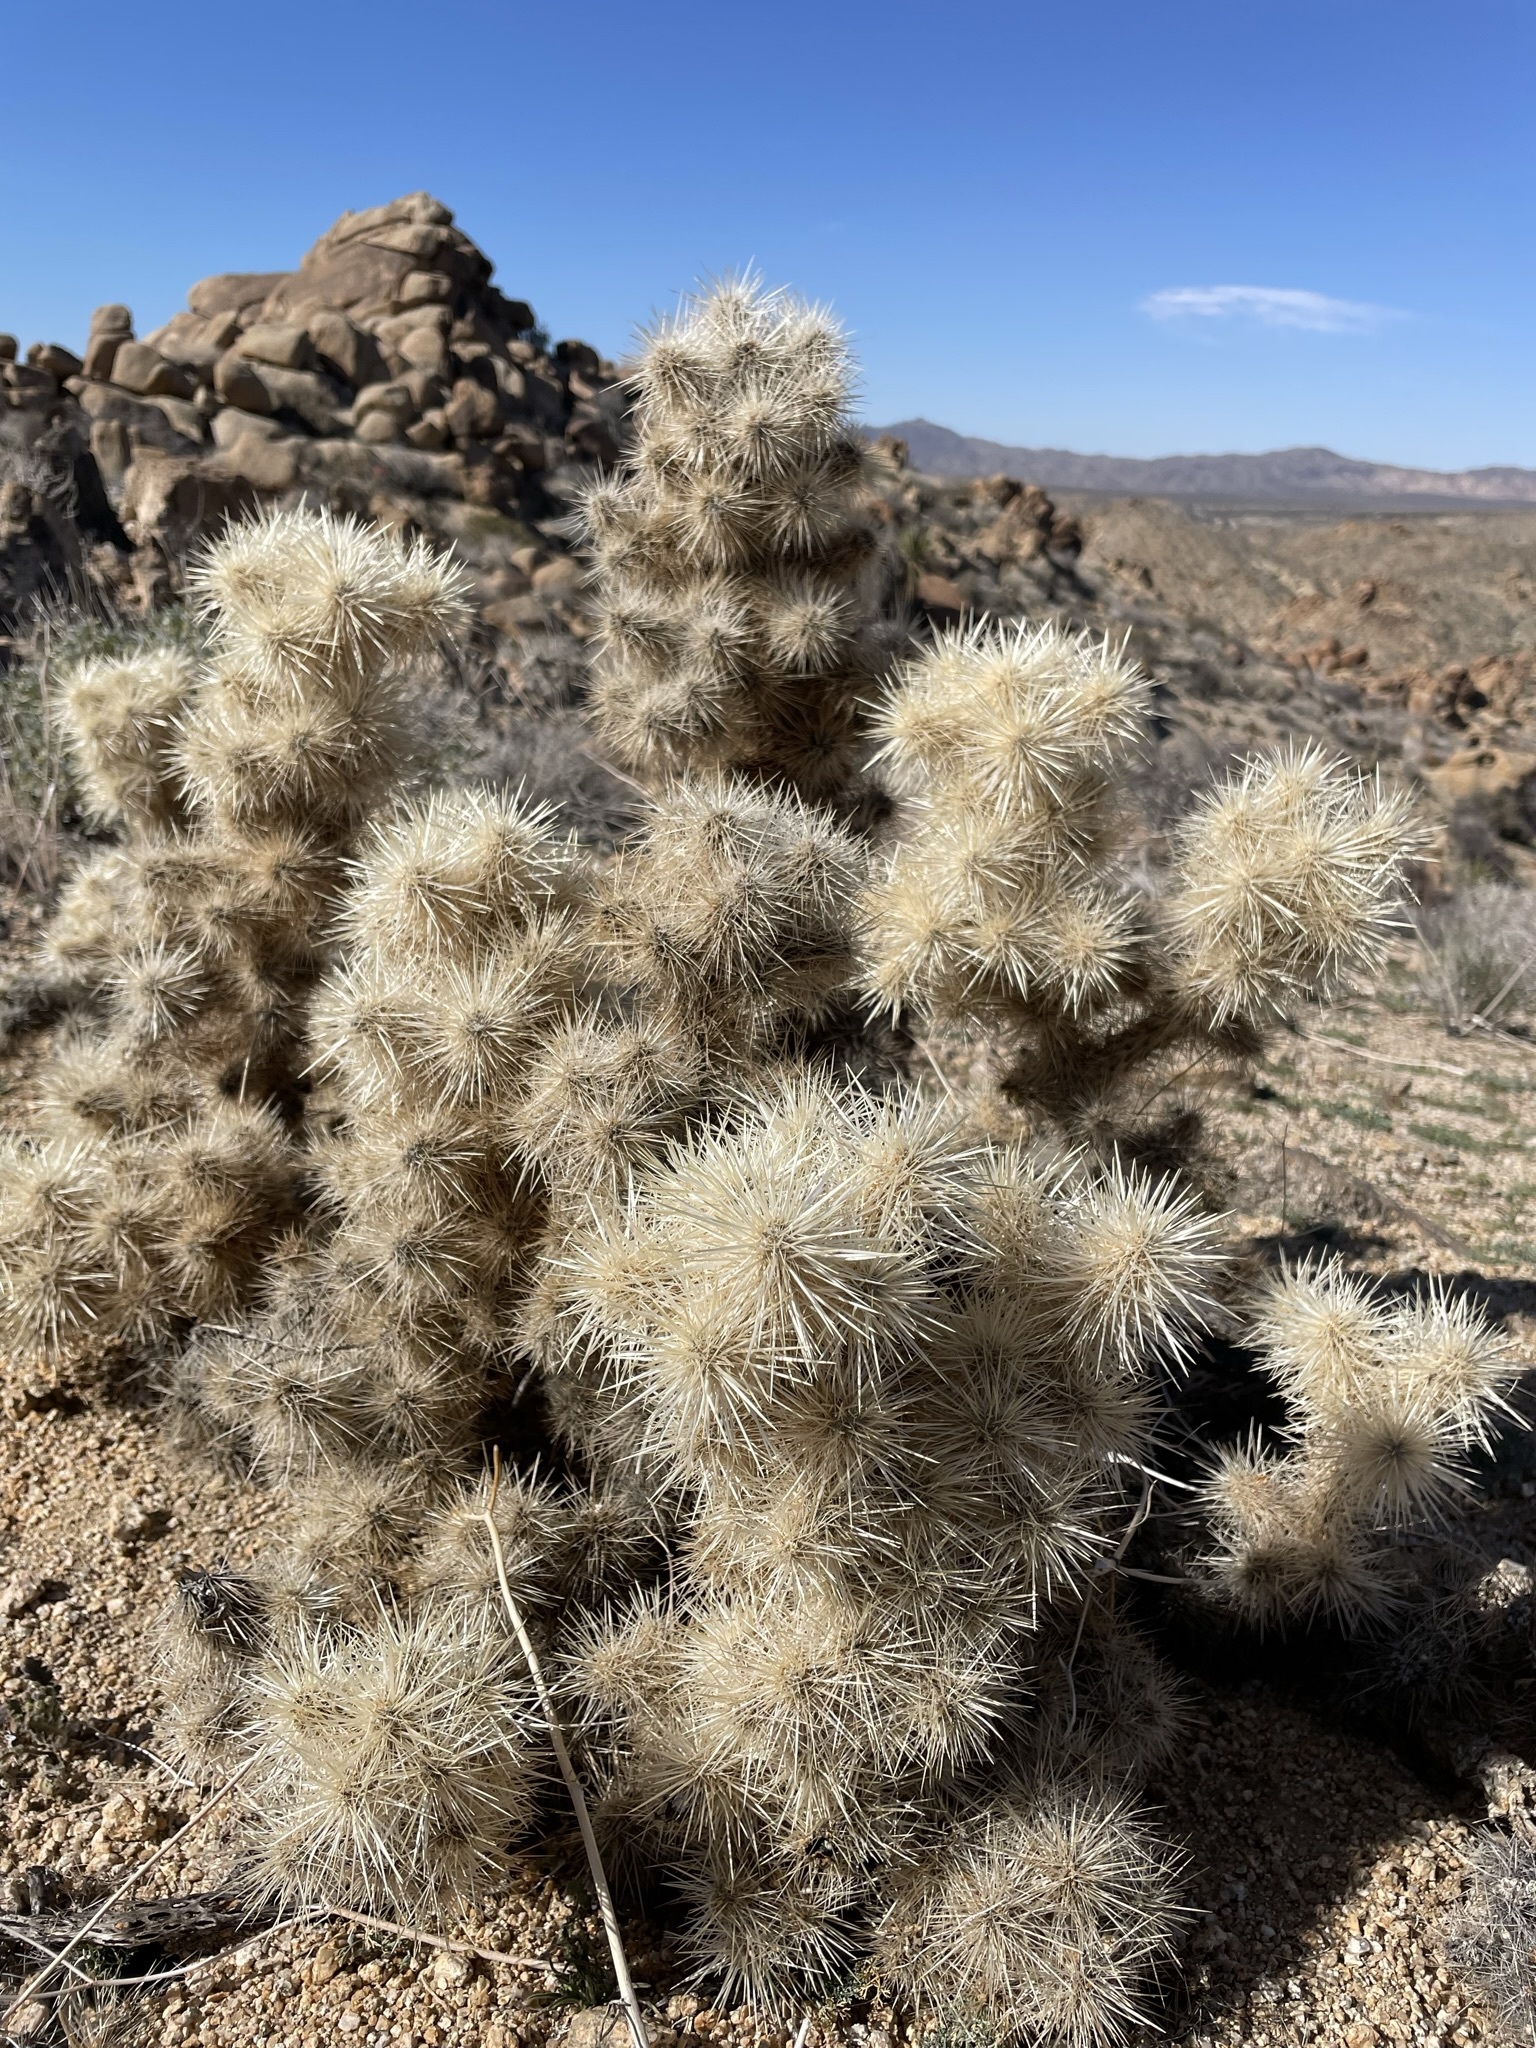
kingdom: Plantae
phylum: Tracheophyta
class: Magnoliopsida
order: Caryophyllales
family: Cactaceae
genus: Cylindropuntia
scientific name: Cylindropuntia echinocarpa
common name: Ground cholla
